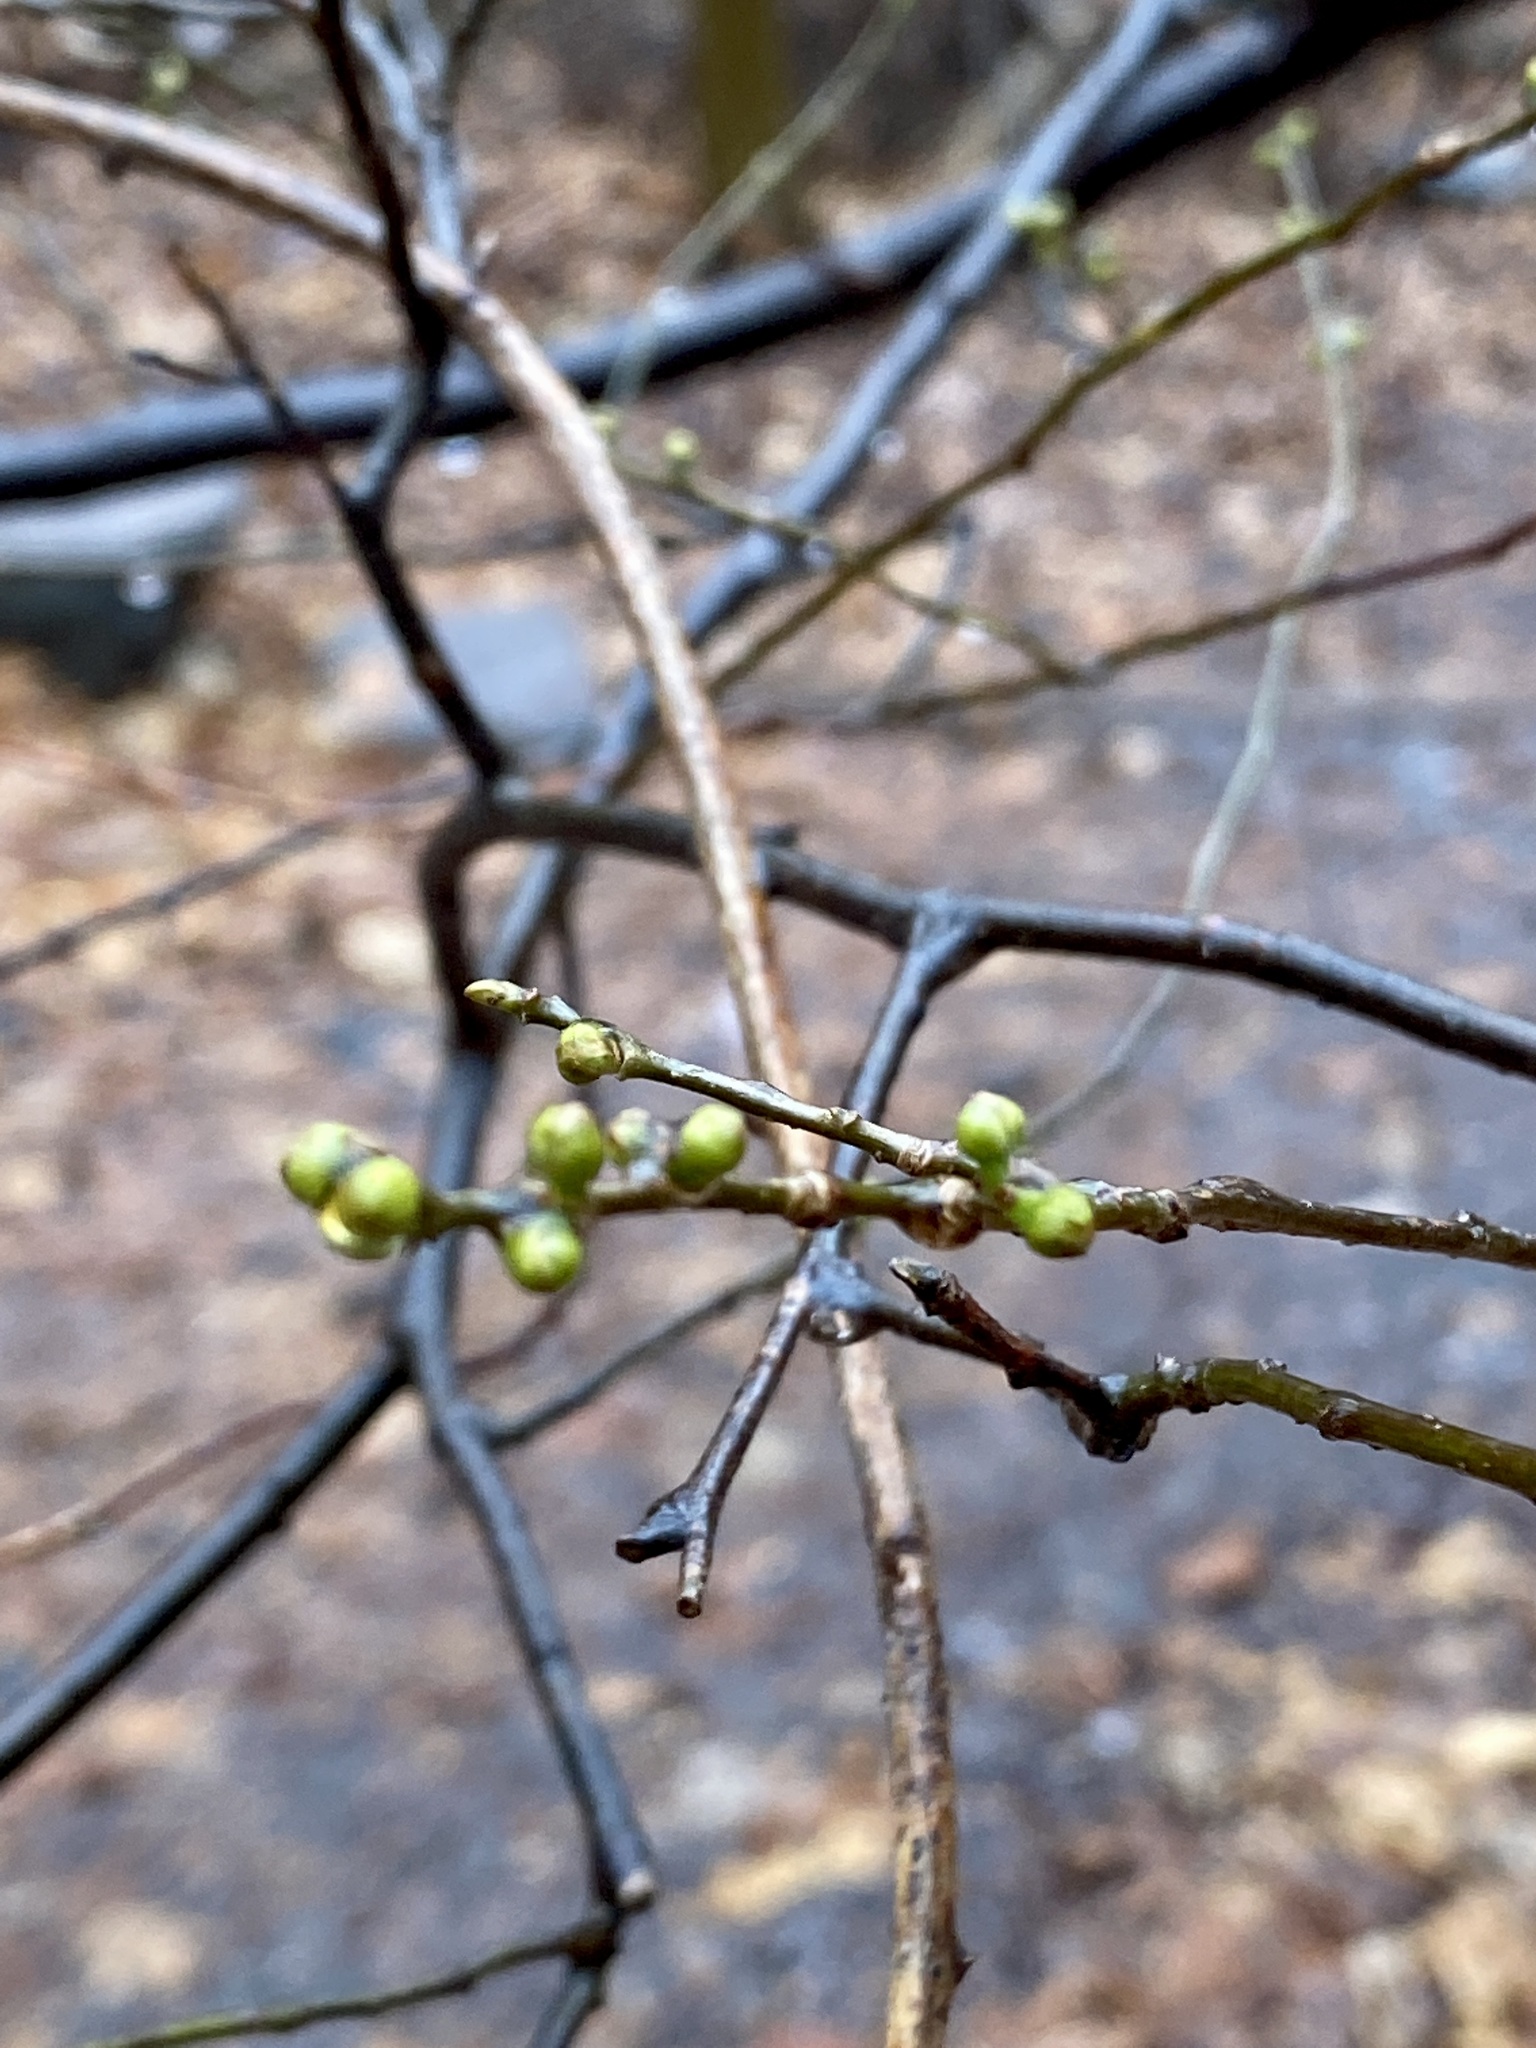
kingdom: Plantae
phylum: Tracheophyta
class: Magnoliopsida
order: Laurales
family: Lauraceae
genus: Lindera
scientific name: Lindera benzoin
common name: Spicebush
